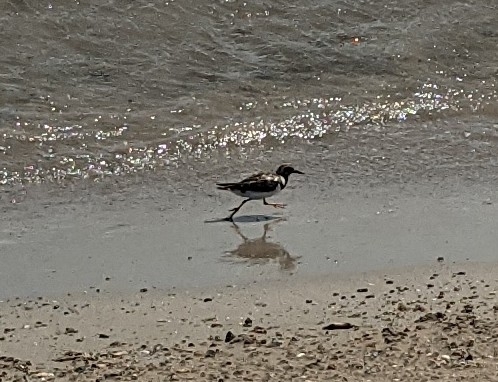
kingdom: Animalia
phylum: Chordata
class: Aves
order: Charadriiformes
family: Scolopacidae
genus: Arenaria
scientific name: Arenaria interpres
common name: Ruddy turnstone
